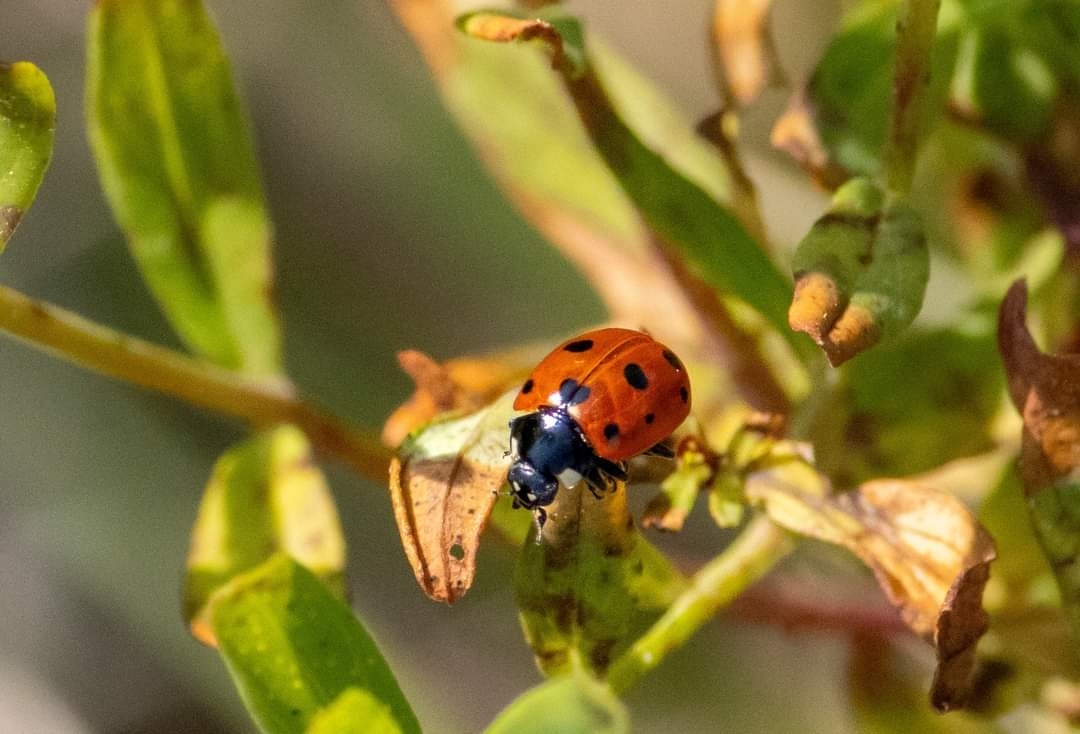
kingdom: Animalia
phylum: Arthropoda
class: Insecta
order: Coleoptera
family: Coccinellidae
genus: Coccinella
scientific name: Coccinella undecimpunctata
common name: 11-spot ladybird
